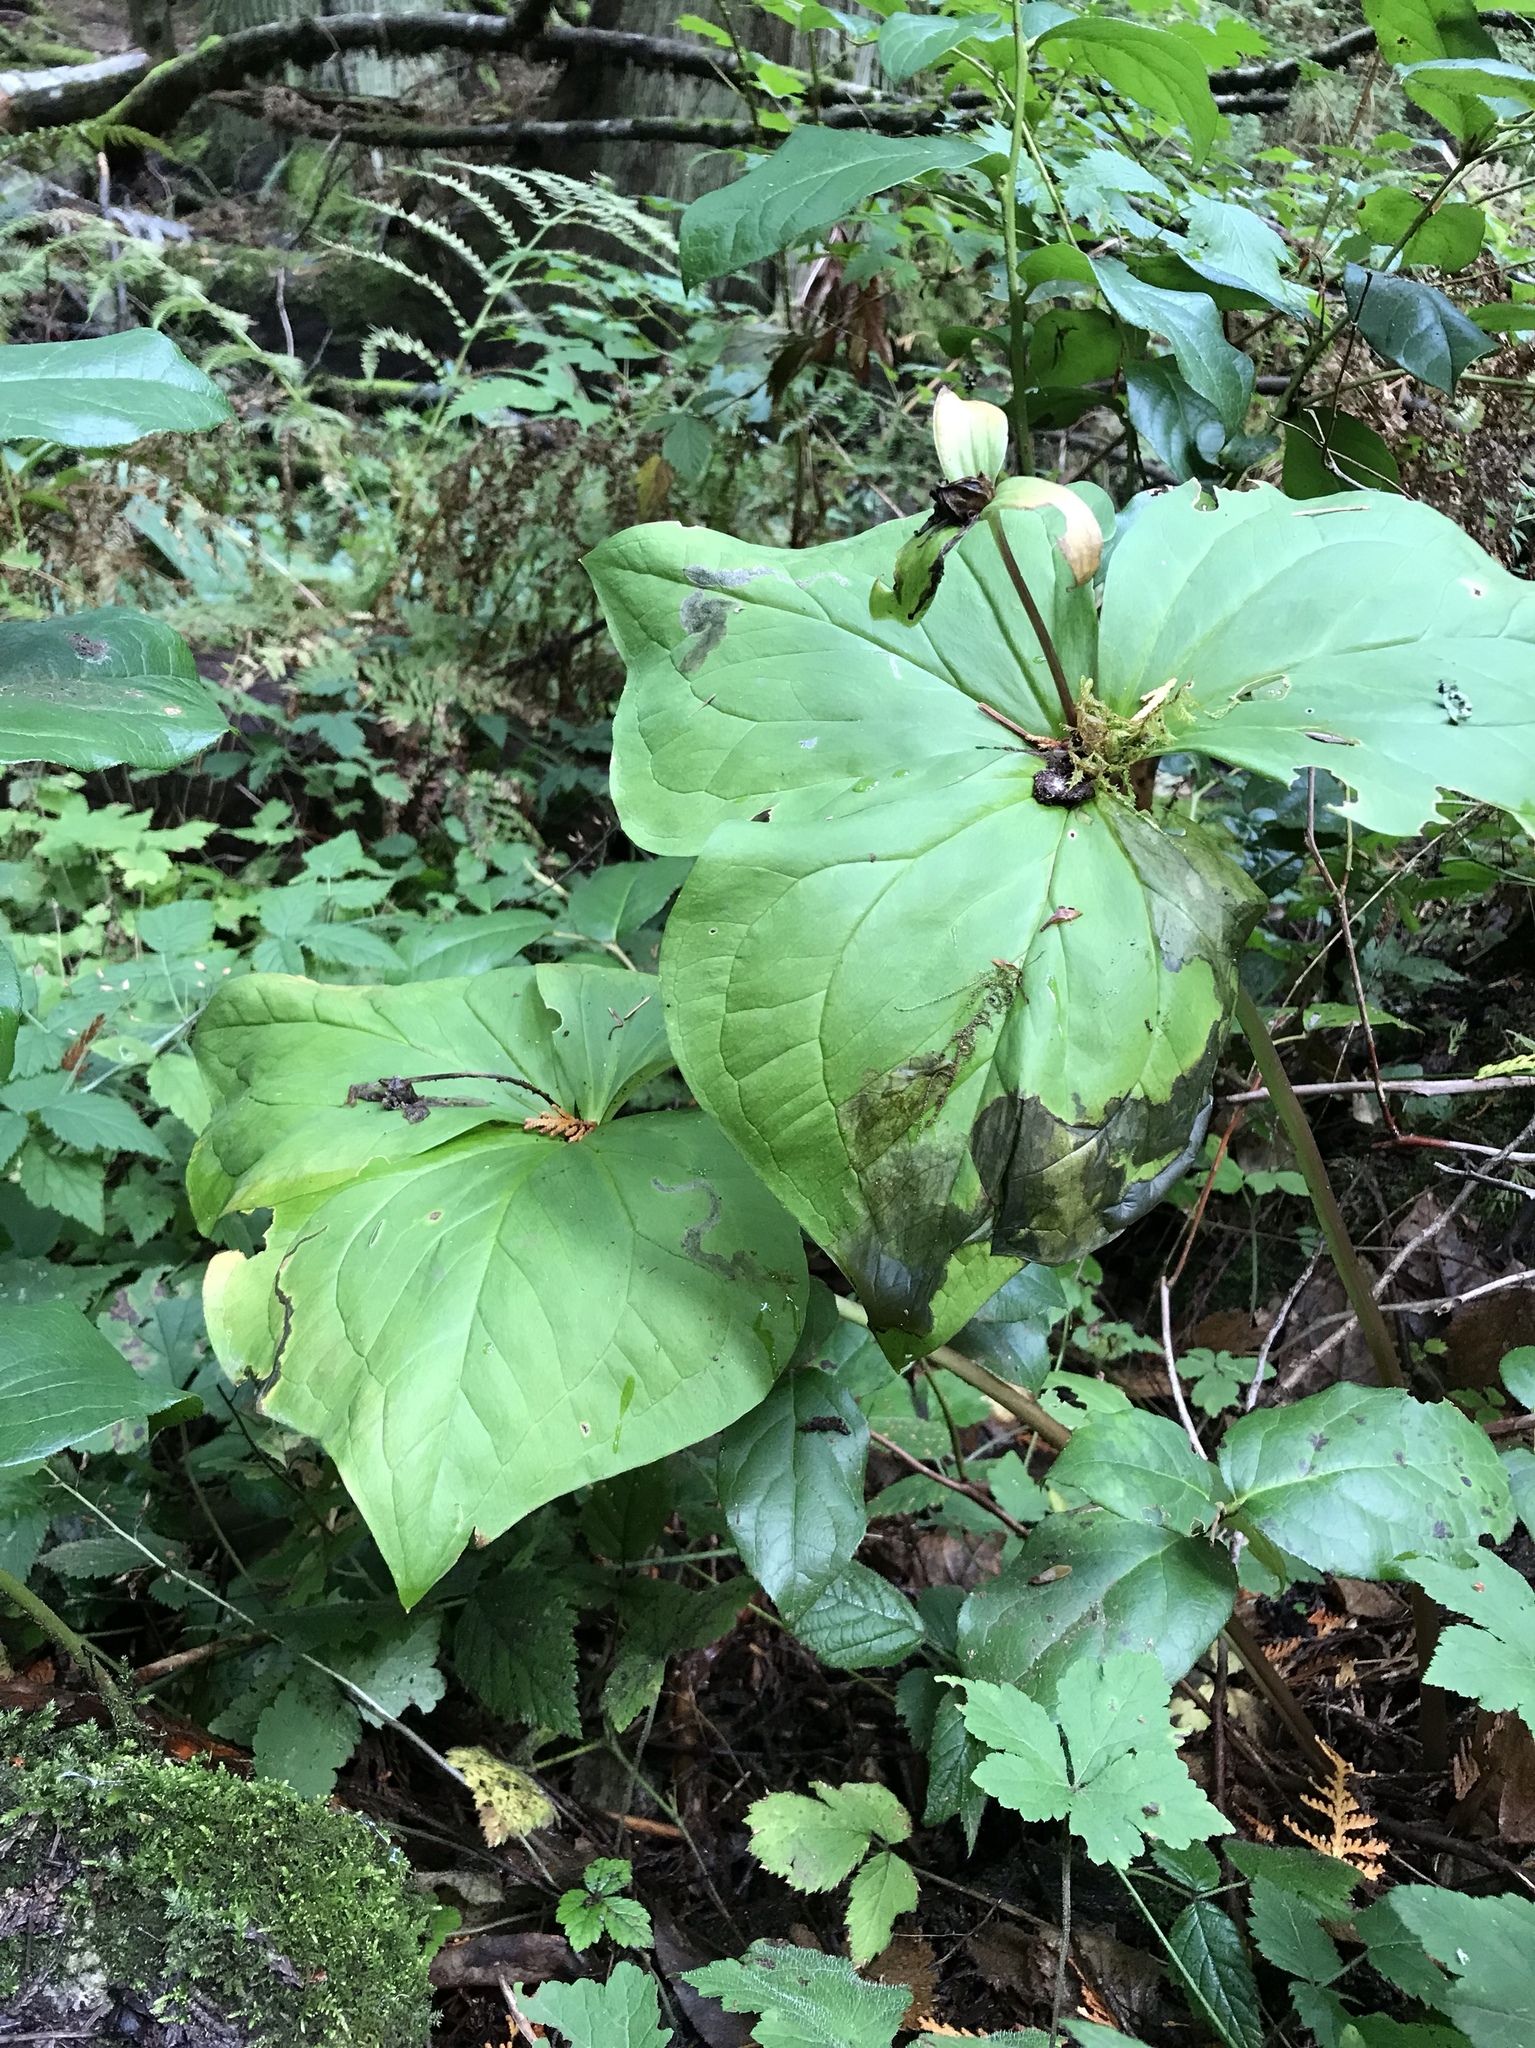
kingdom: Plantae
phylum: Tracheophyta
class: Liliopsida
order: Liliales
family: Melanthiaceae
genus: Trillium
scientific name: Trillium ovatum
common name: Pacific trillium
